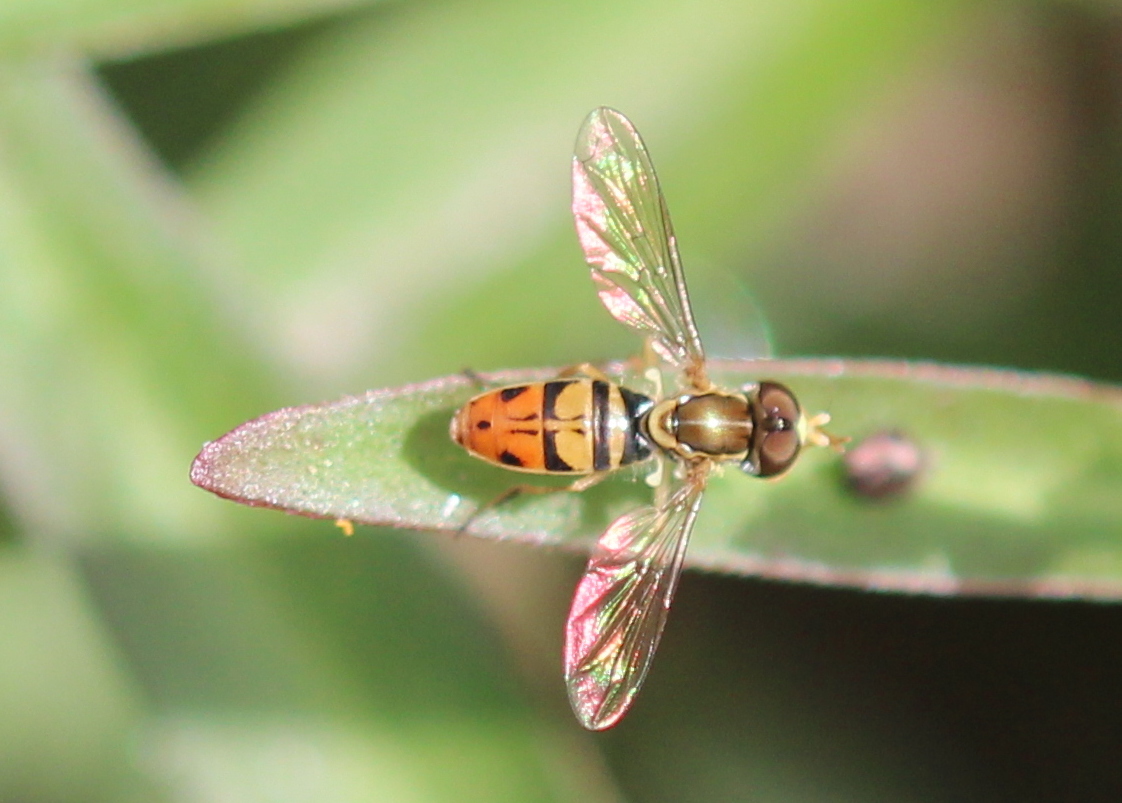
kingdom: Animalia
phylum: Arthropoda
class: Insecta
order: Diptera
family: Syrphidae
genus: Toxomerus
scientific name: Toxomerus marginatus
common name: Syrphid fly
